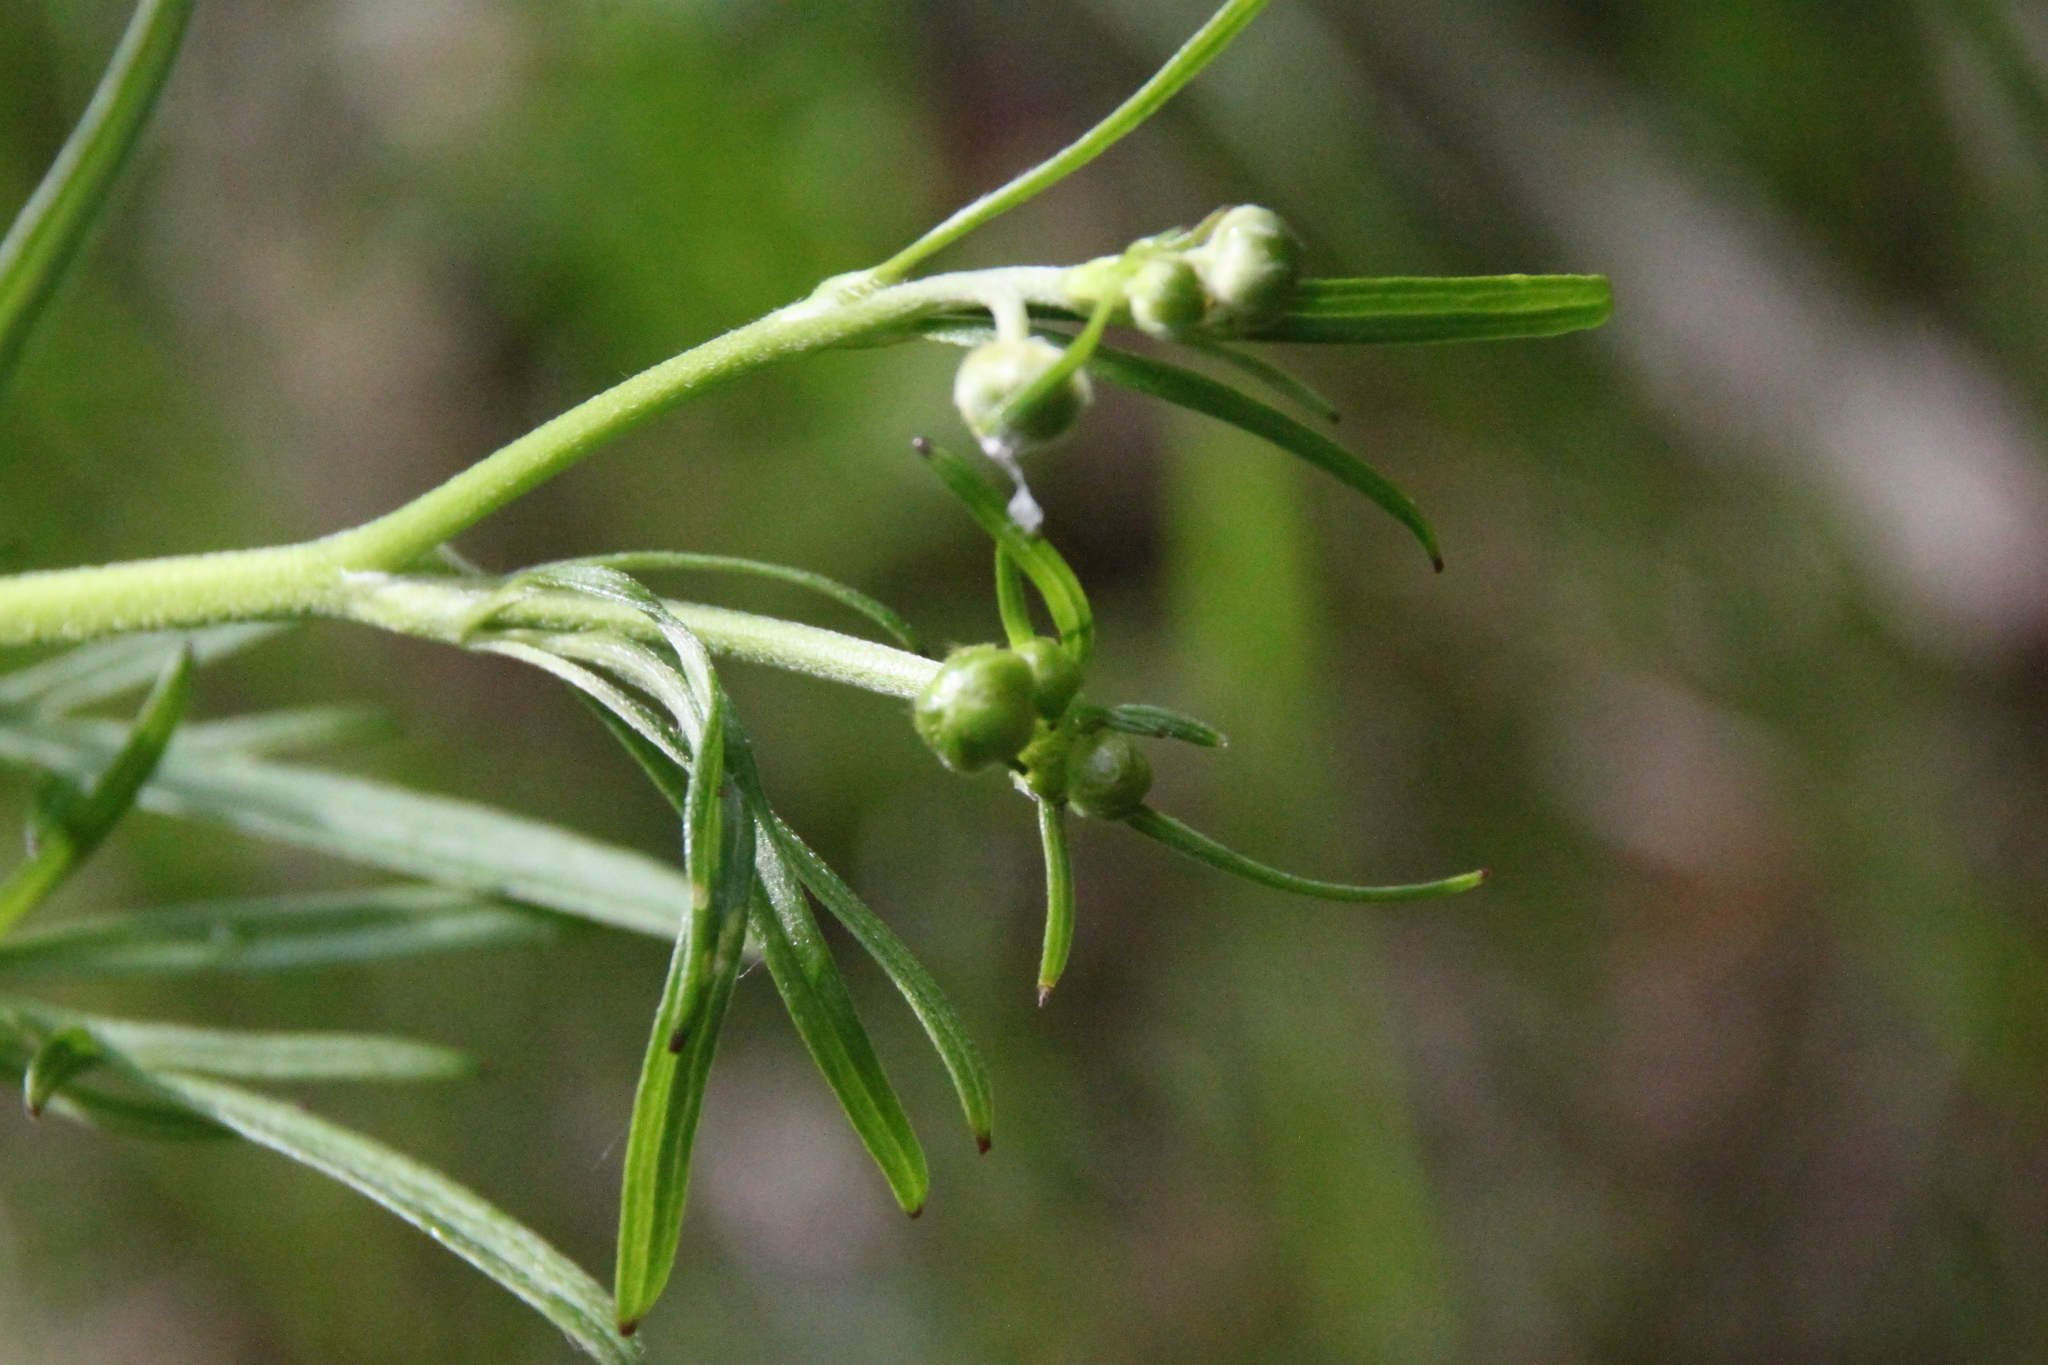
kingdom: Plantae
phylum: Tracheophyta
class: Magnoliopsida
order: Ranunculales
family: Ranunculaceae
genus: Ranunculus
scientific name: Ranunculus acris
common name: Meadow buttercup
